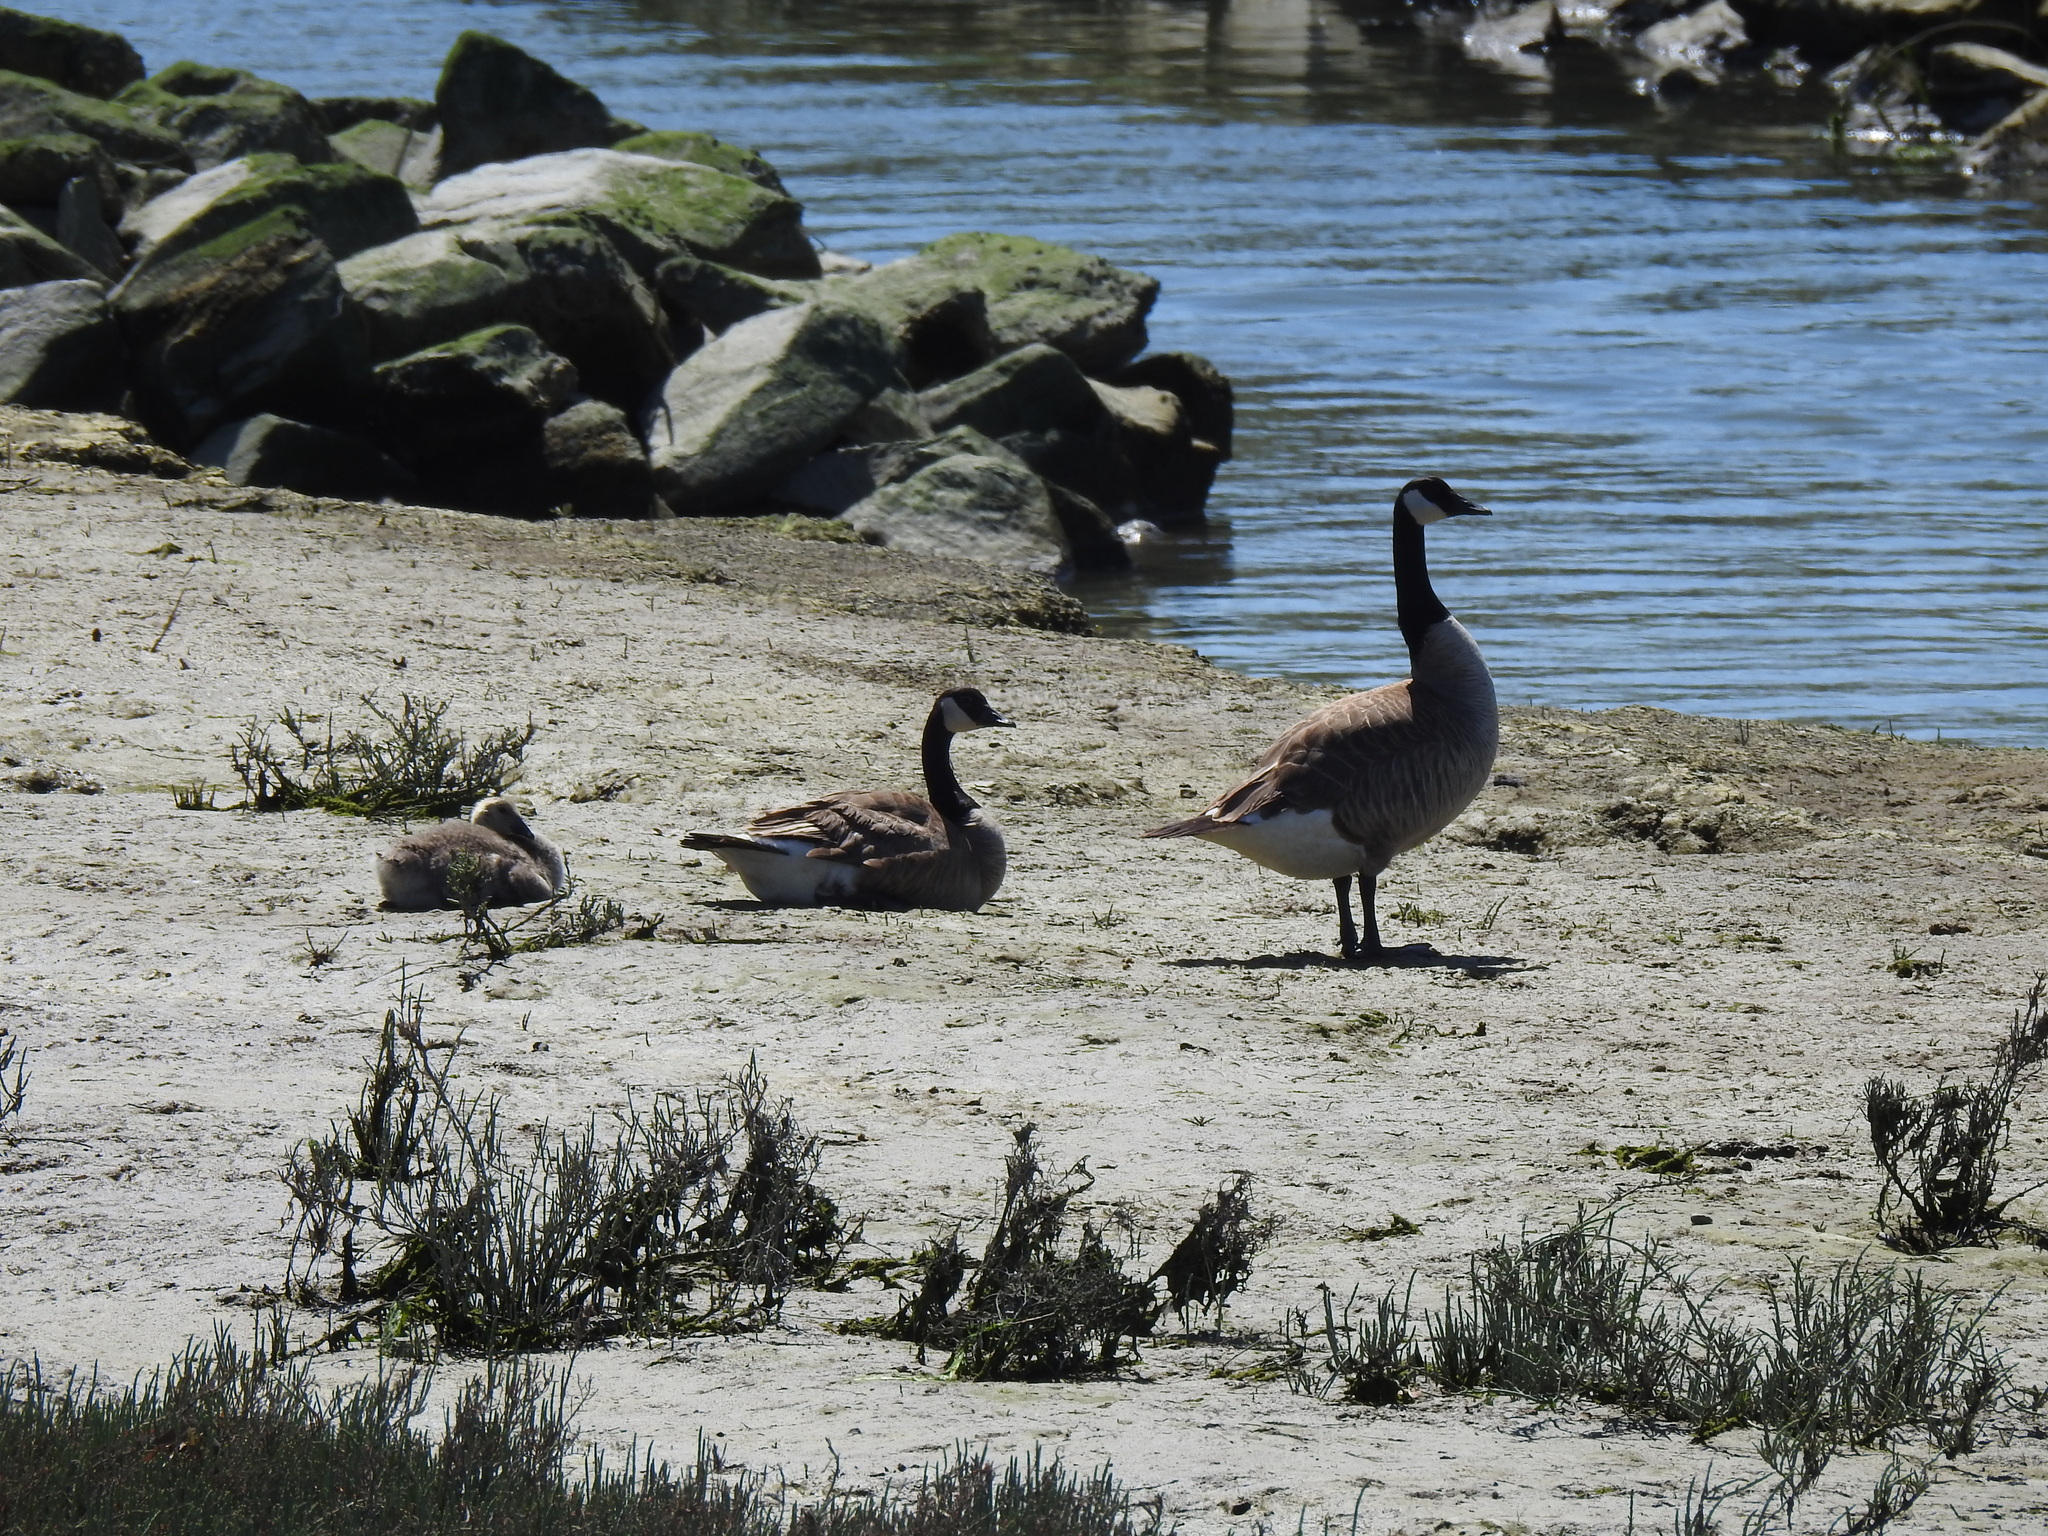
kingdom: Animalia
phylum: Chordata
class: Aves
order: Anseriformes
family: Anatidae
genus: Branta
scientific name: Branta canadensis
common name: Canada goose
